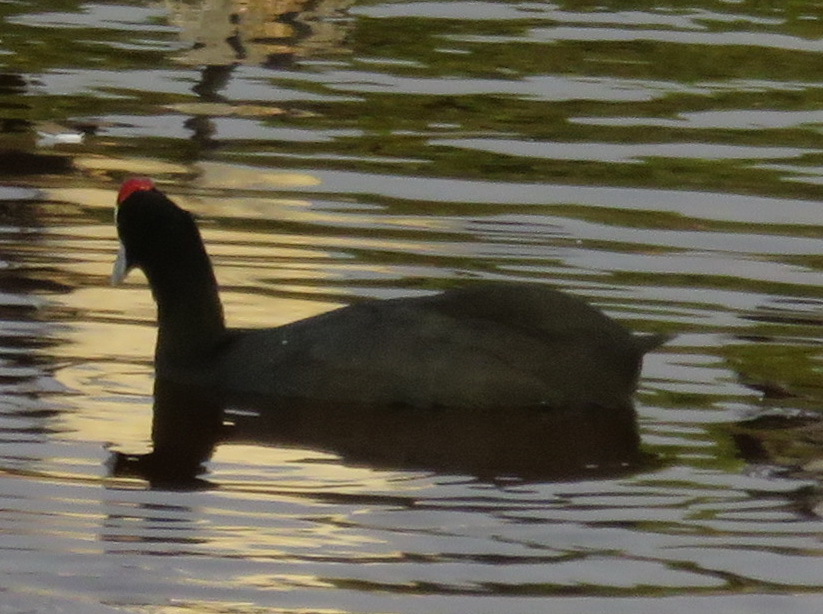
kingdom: Animalia
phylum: Chordata
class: Aves
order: Gruiformes
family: Rallidae
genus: Fulica
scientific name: Fulica cristata
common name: Red-knobbed coot
